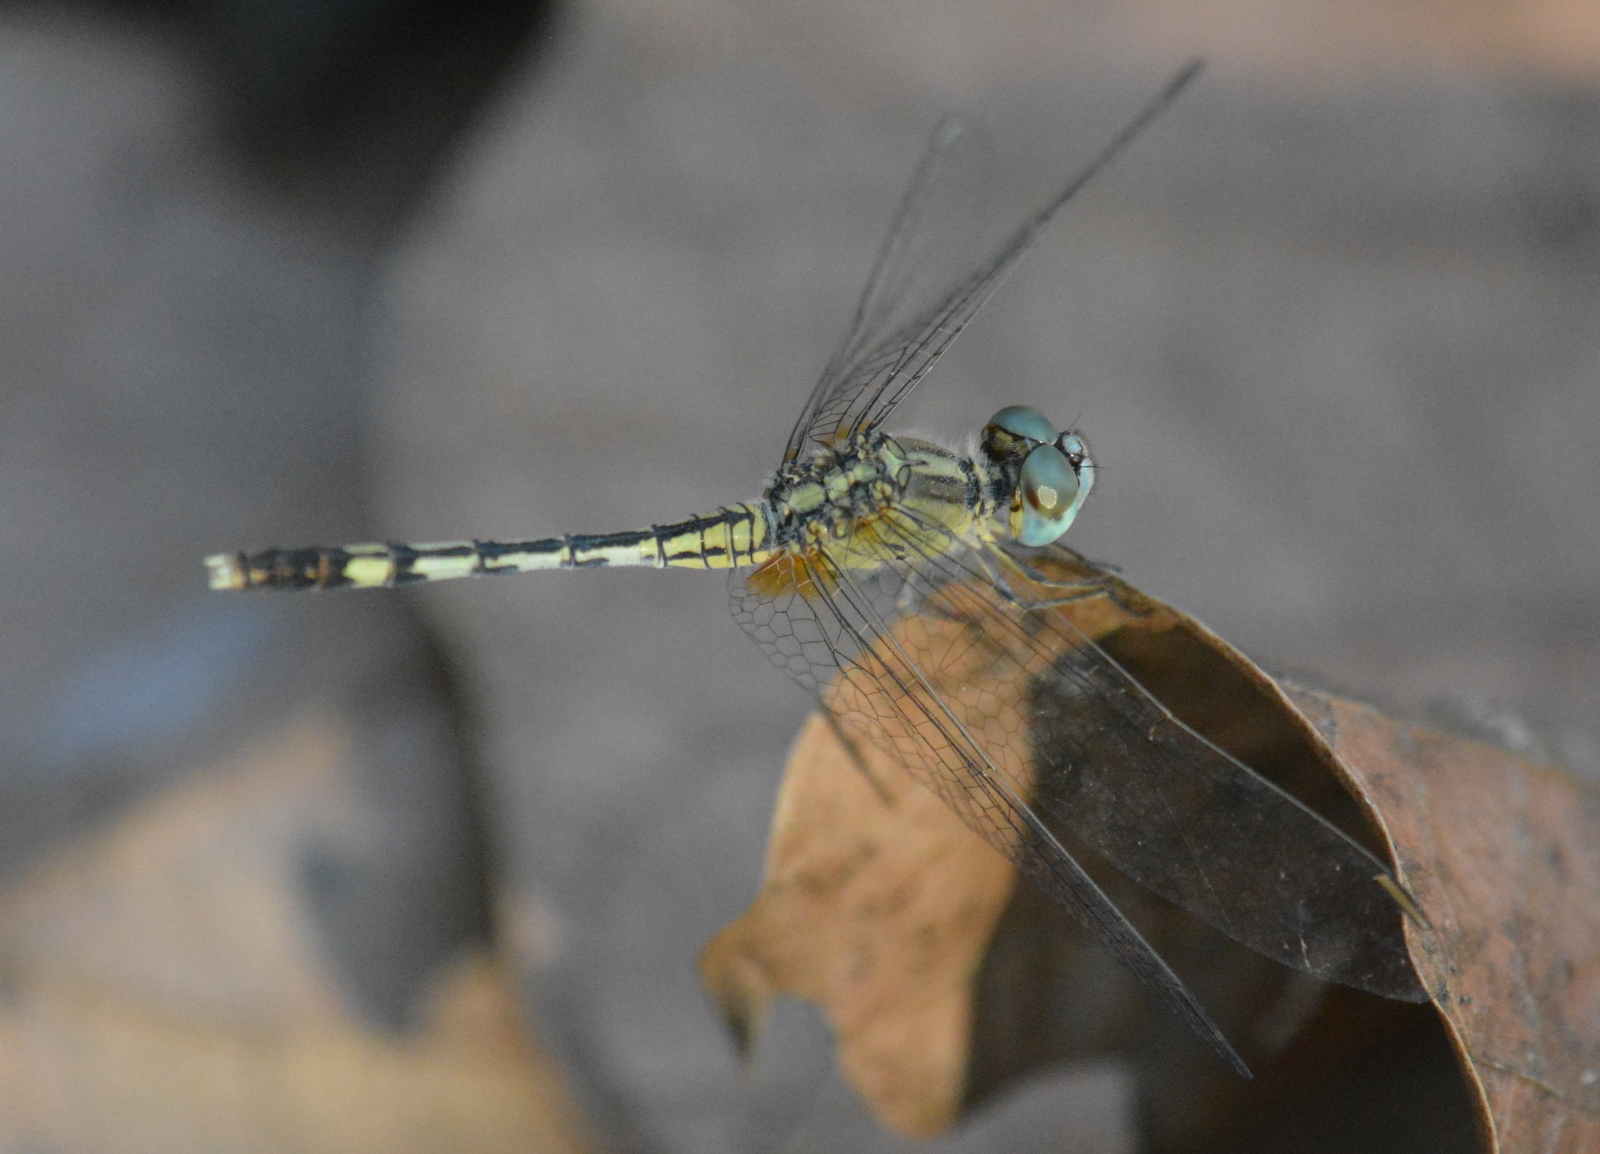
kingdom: Animalia
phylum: Arthropoda
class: Insecta
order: Odonata
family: Libellulidae
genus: Diplacodes
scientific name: Diplacodes trivialis
